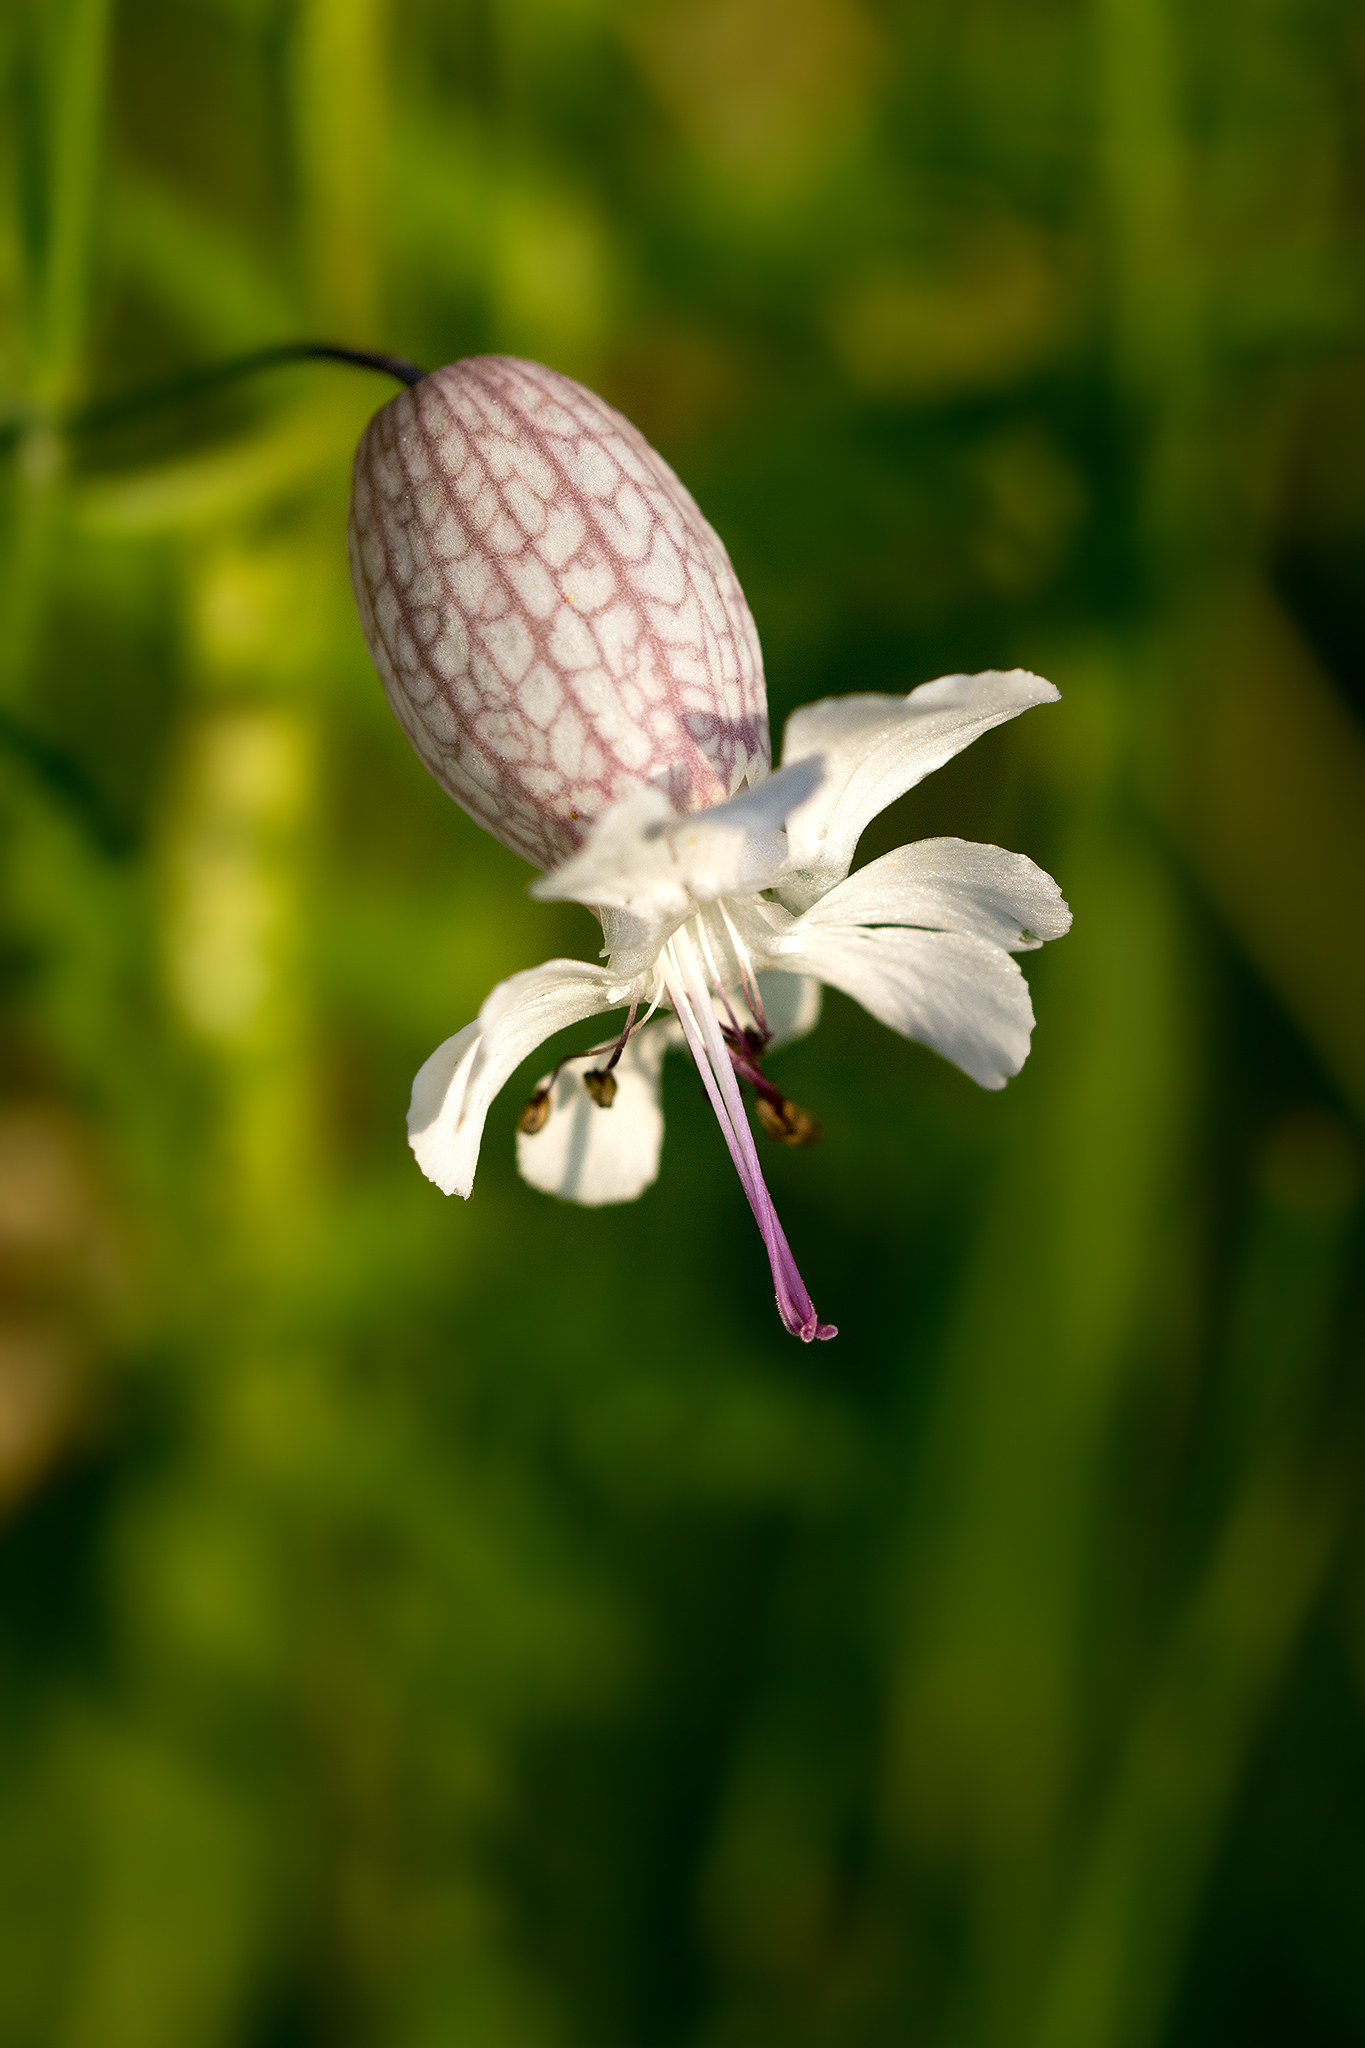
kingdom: Plantae
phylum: Tracheophyta
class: Magnoliopsida
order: Caryophyllales
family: Caryophyllaceae
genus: Silene
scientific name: Silene vulgaris
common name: Bladder campion
